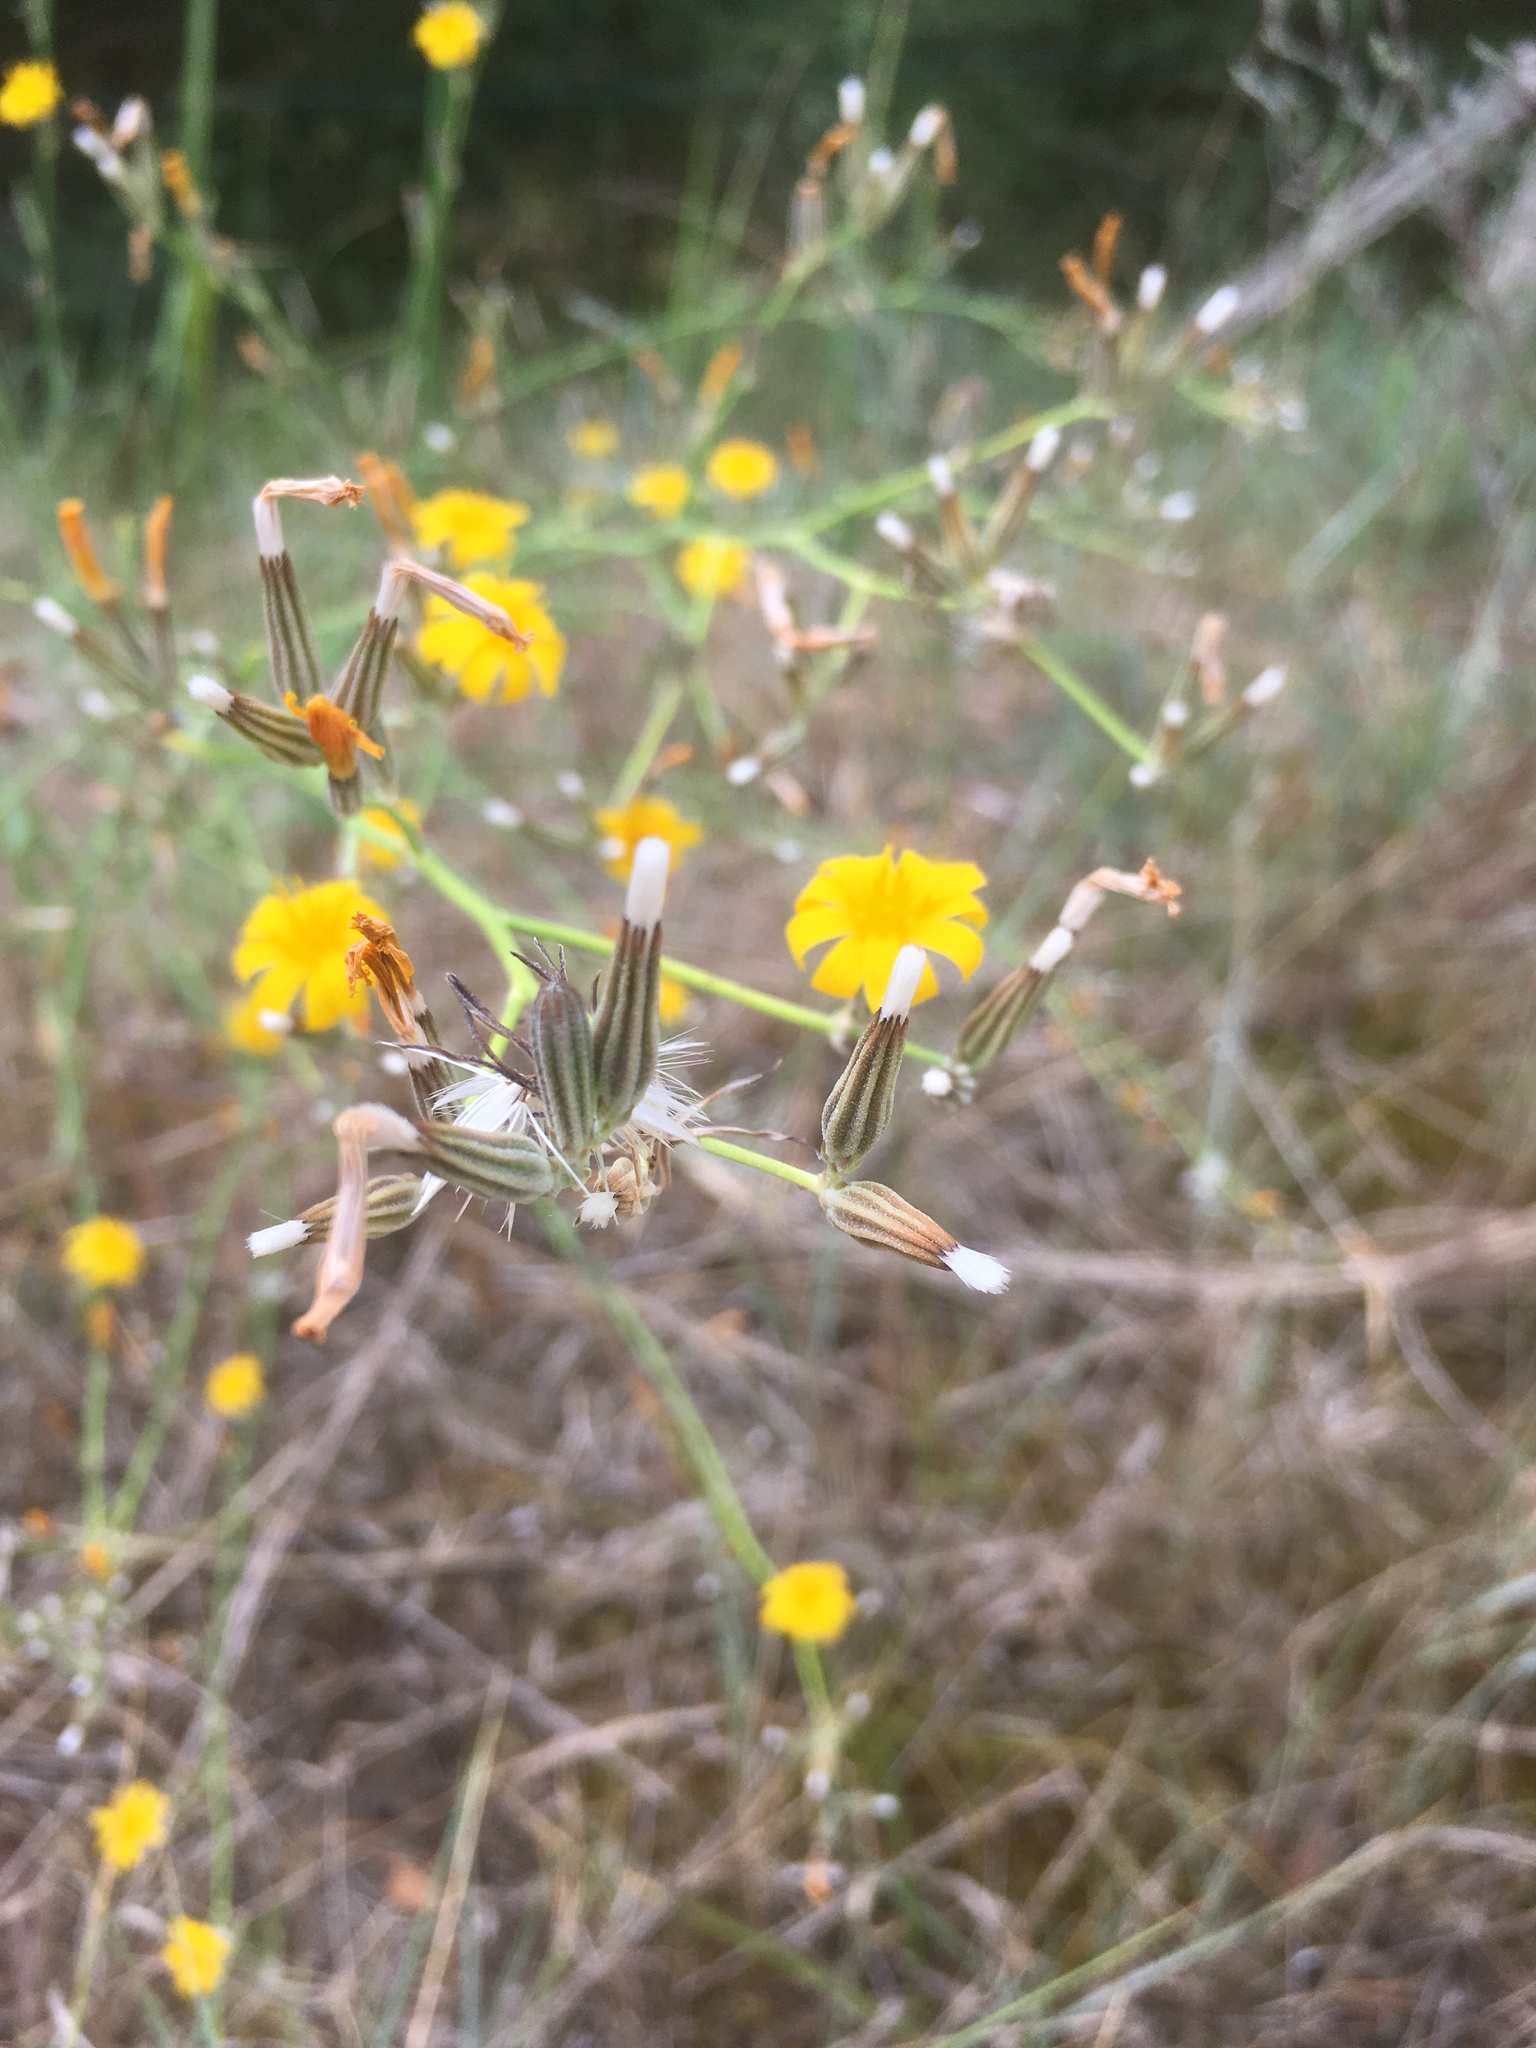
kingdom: Plantae
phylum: Tracheophyta
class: Magnoliopsida
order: Asterales
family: Asteraceae
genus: Chondrilla
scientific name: Chondrilla juncea
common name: Skeleton weed
